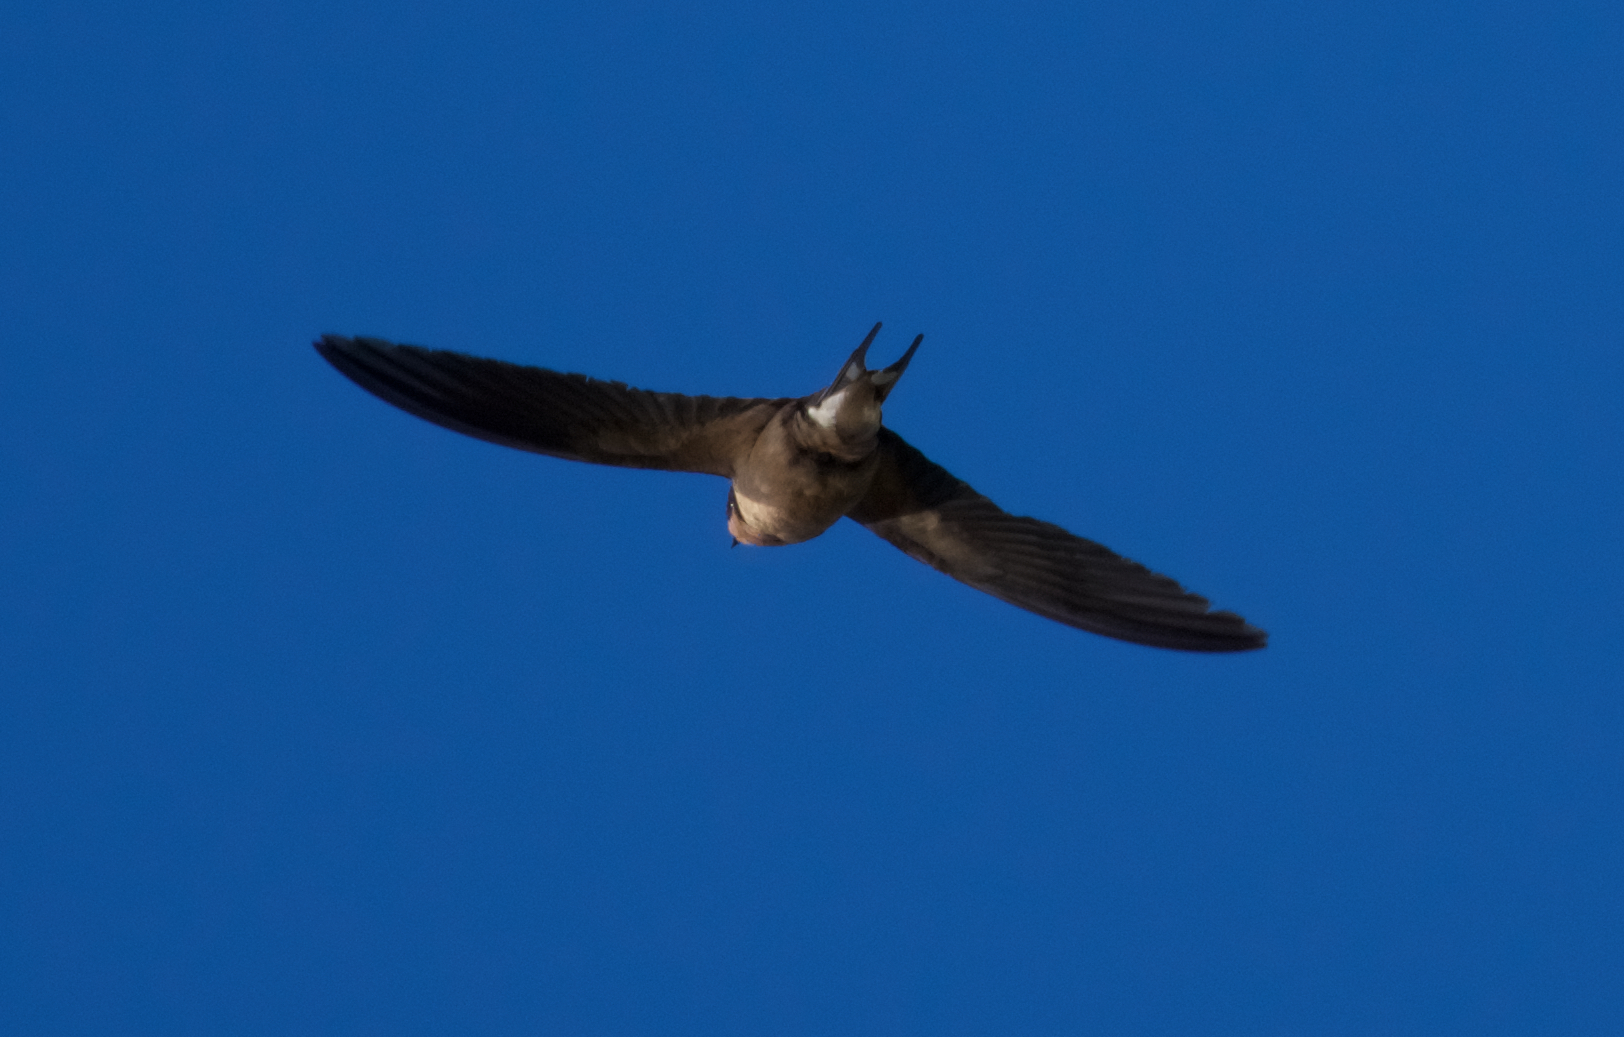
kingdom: Animalia
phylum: Chordata
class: Aves
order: Passeriformes
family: Hirundinidae
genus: Hirundo
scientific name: Hirundo rustica
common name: Barn swallow
